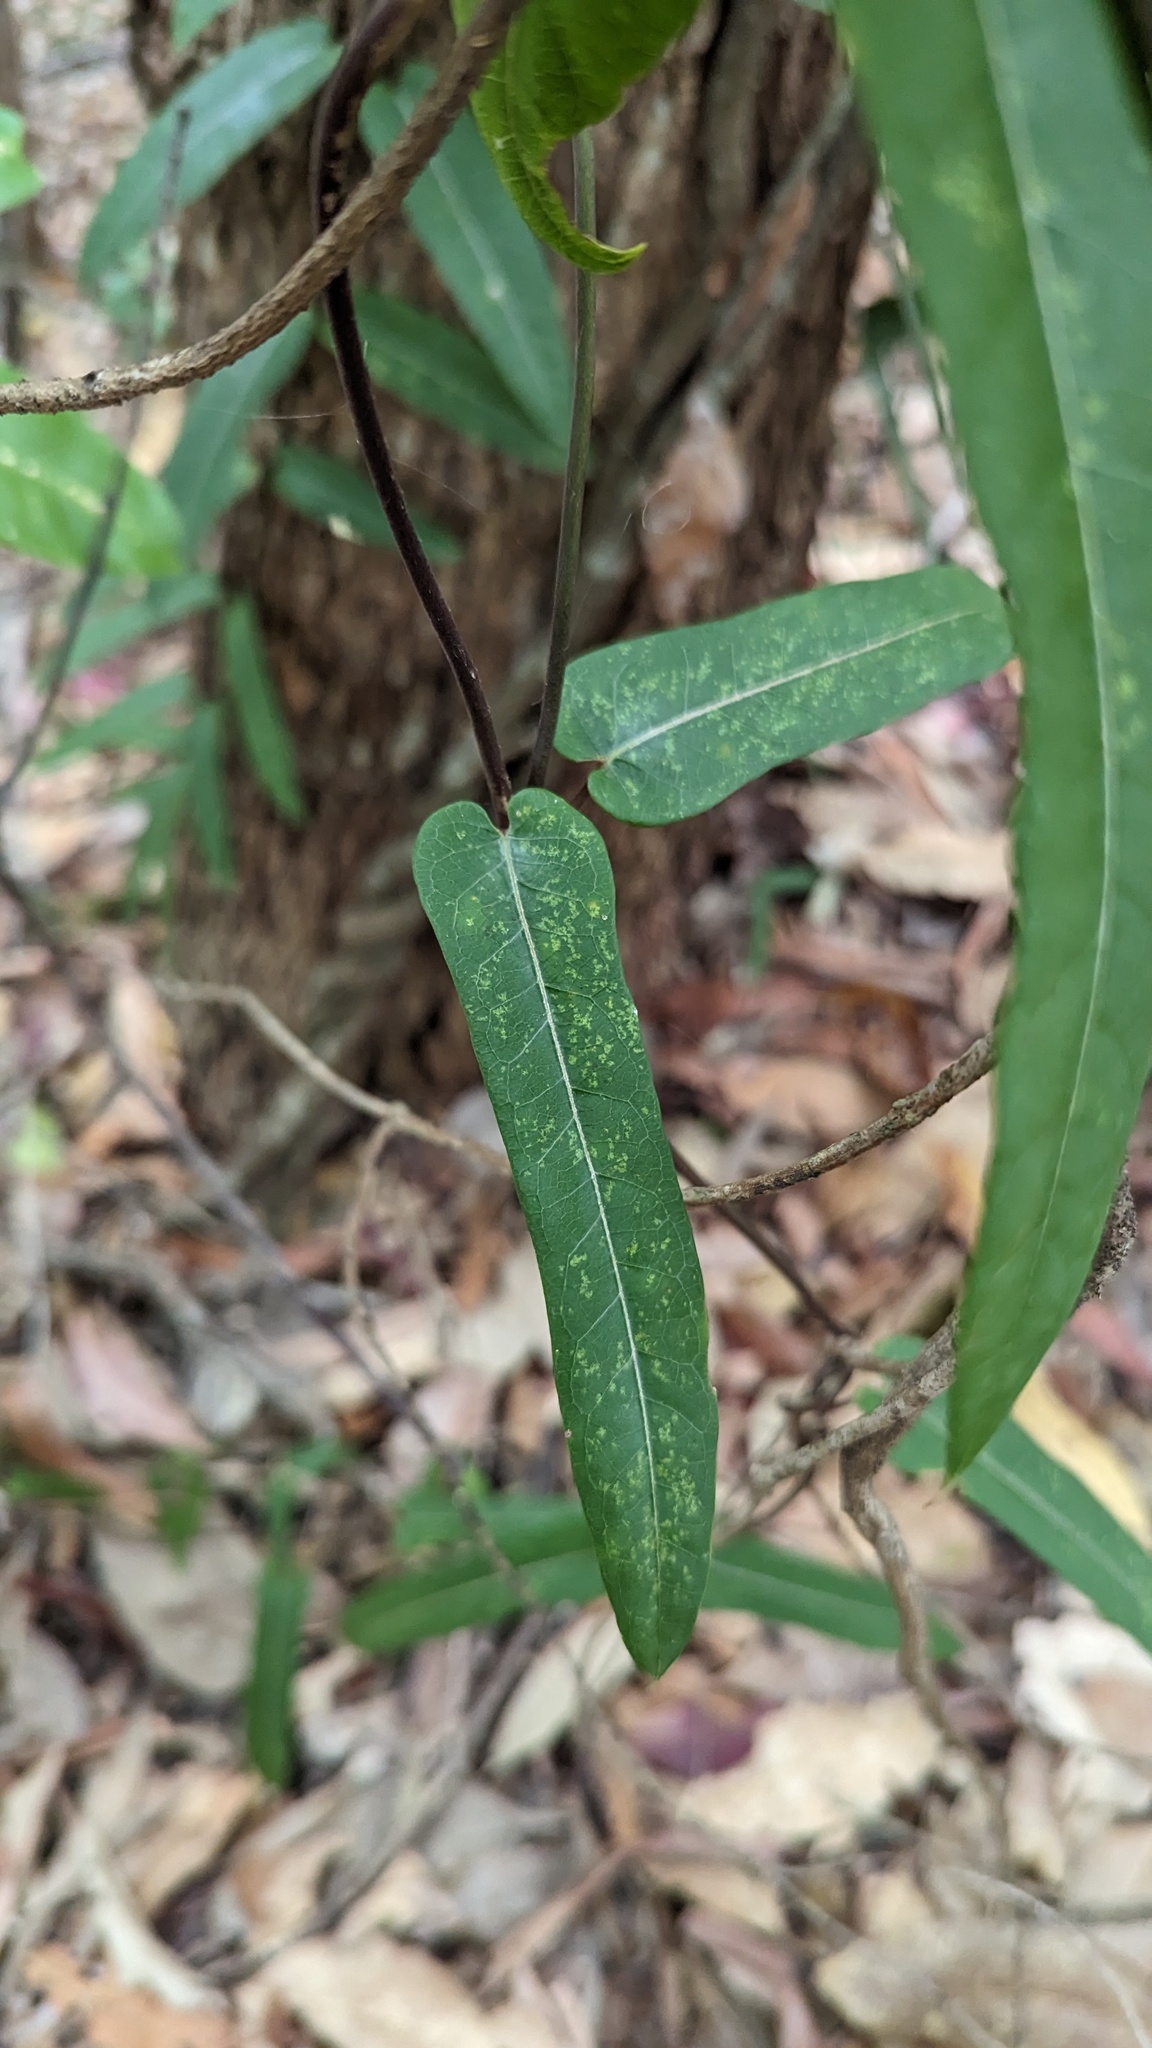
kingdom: Plantae
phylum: Tracheophyta
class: Magnoliopsida
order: Gentianales
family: Apocynaceae
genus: Parsonsia
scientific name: Parsonsia straminea
